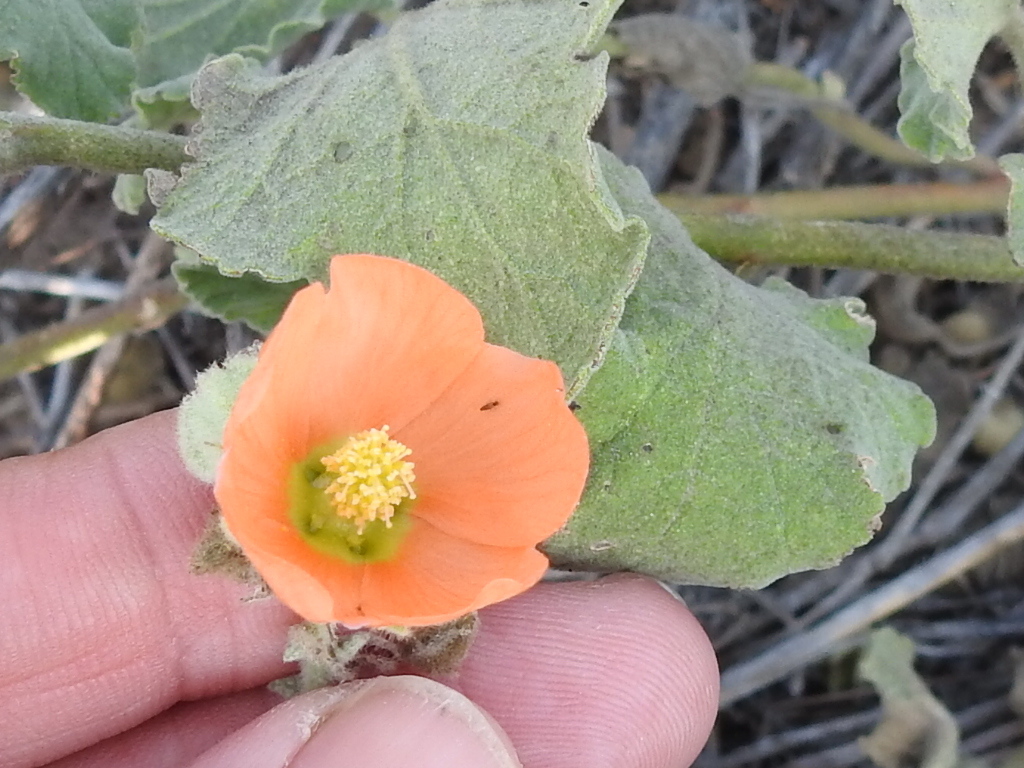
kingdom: Plantae
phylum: Tracheophyta
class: Magnoliopsida
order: Malvales
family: Malvaceae
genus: Sphaeralcea
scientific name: Sphaeralcea lindheimeri
